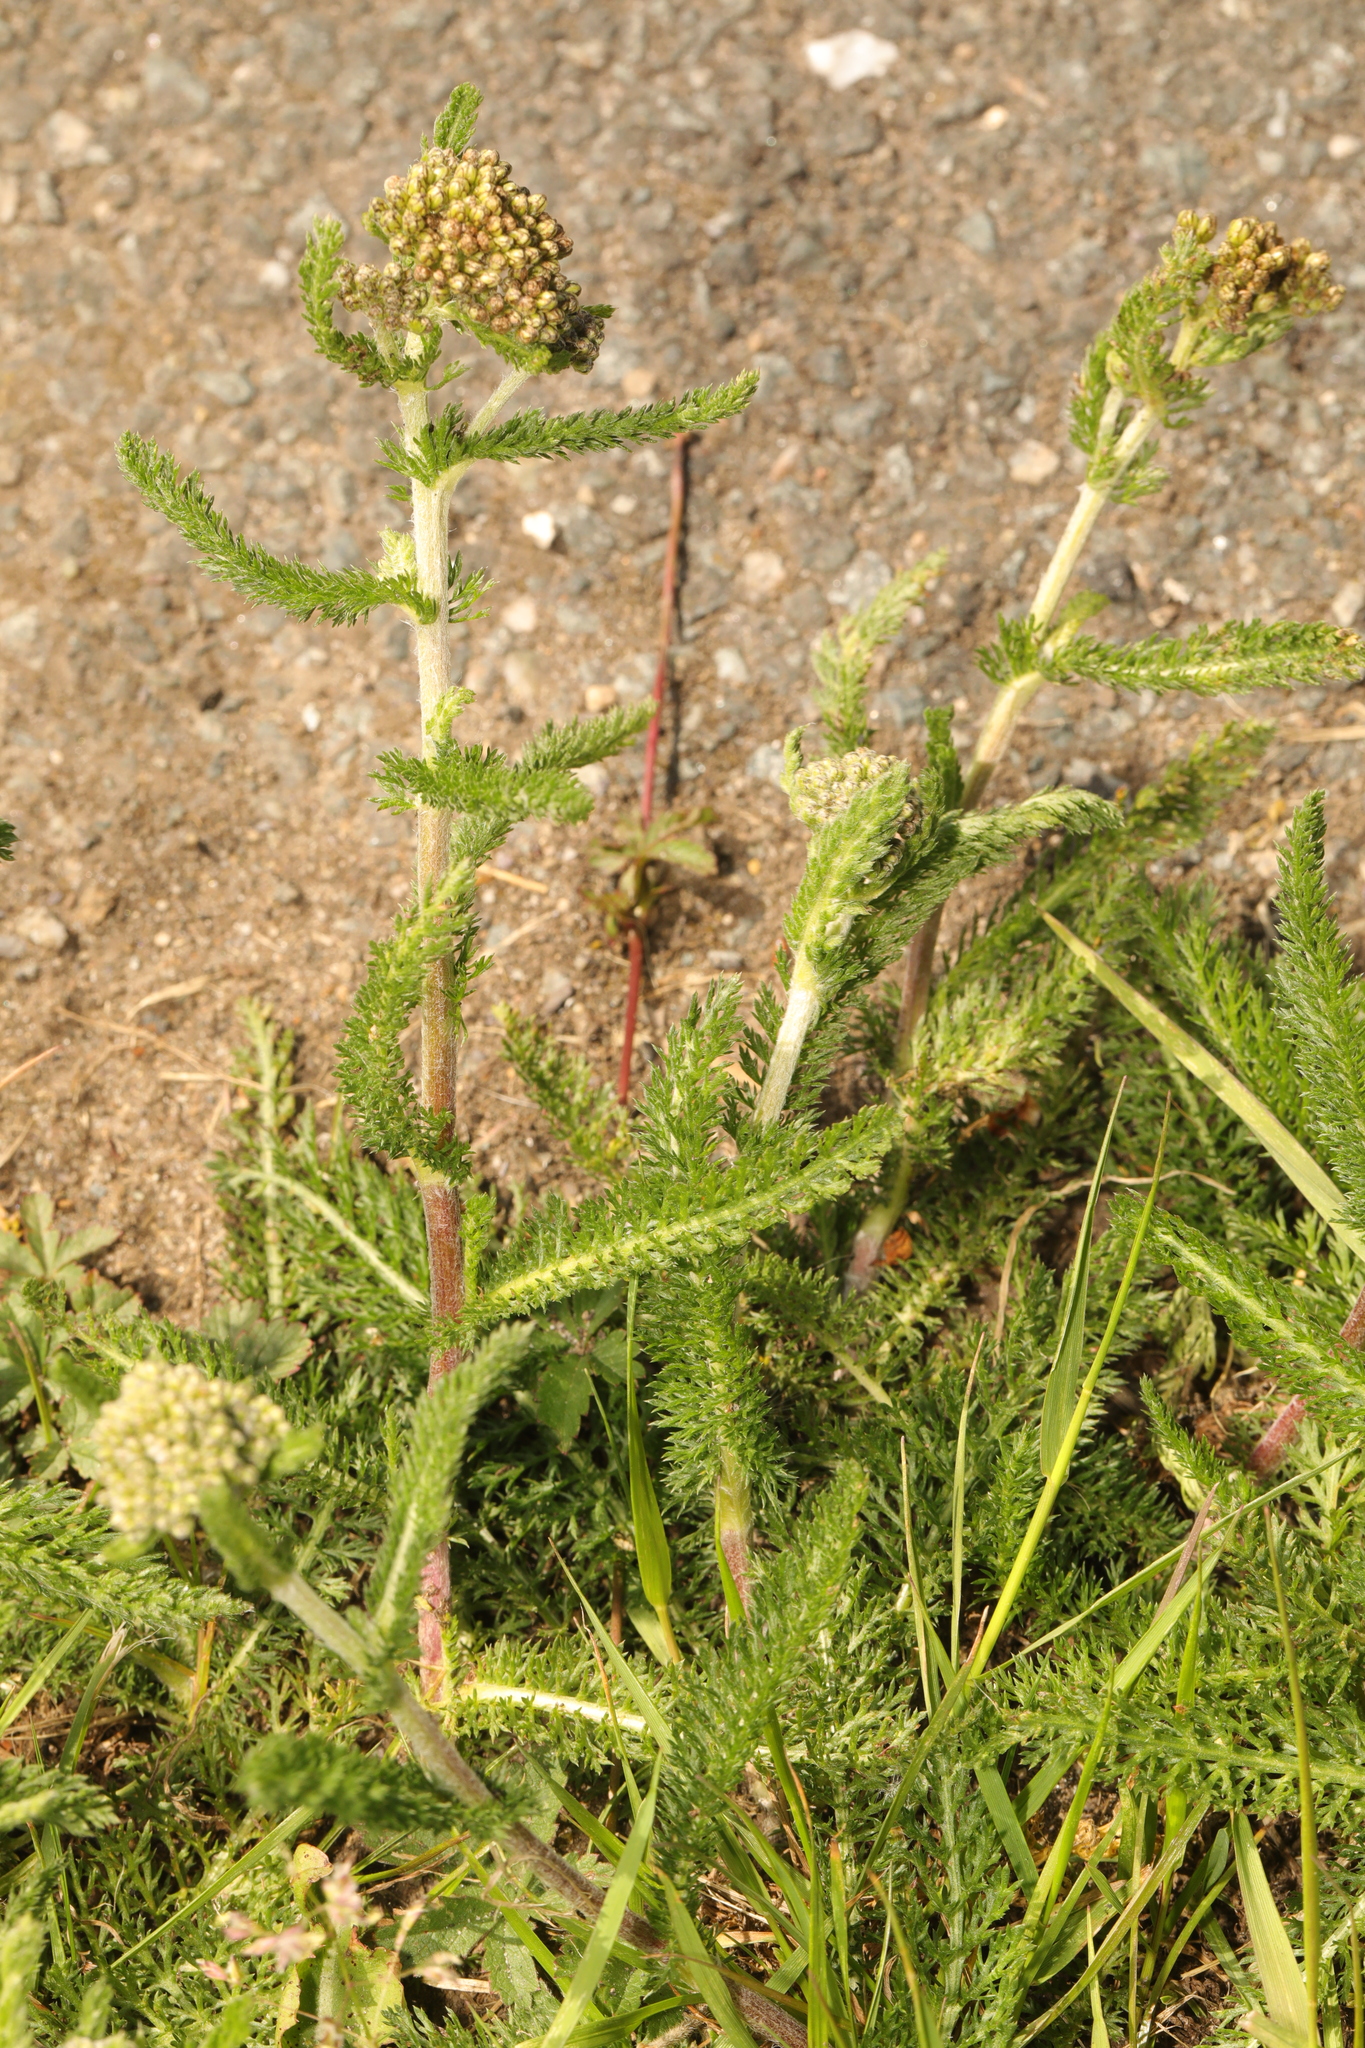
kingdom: Plantae
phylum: Tracheophyta
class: Magnoliopsida
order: Asterales
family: Asteraceae
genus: Achillea
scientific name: Achillea millefolium
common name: Yarrow
